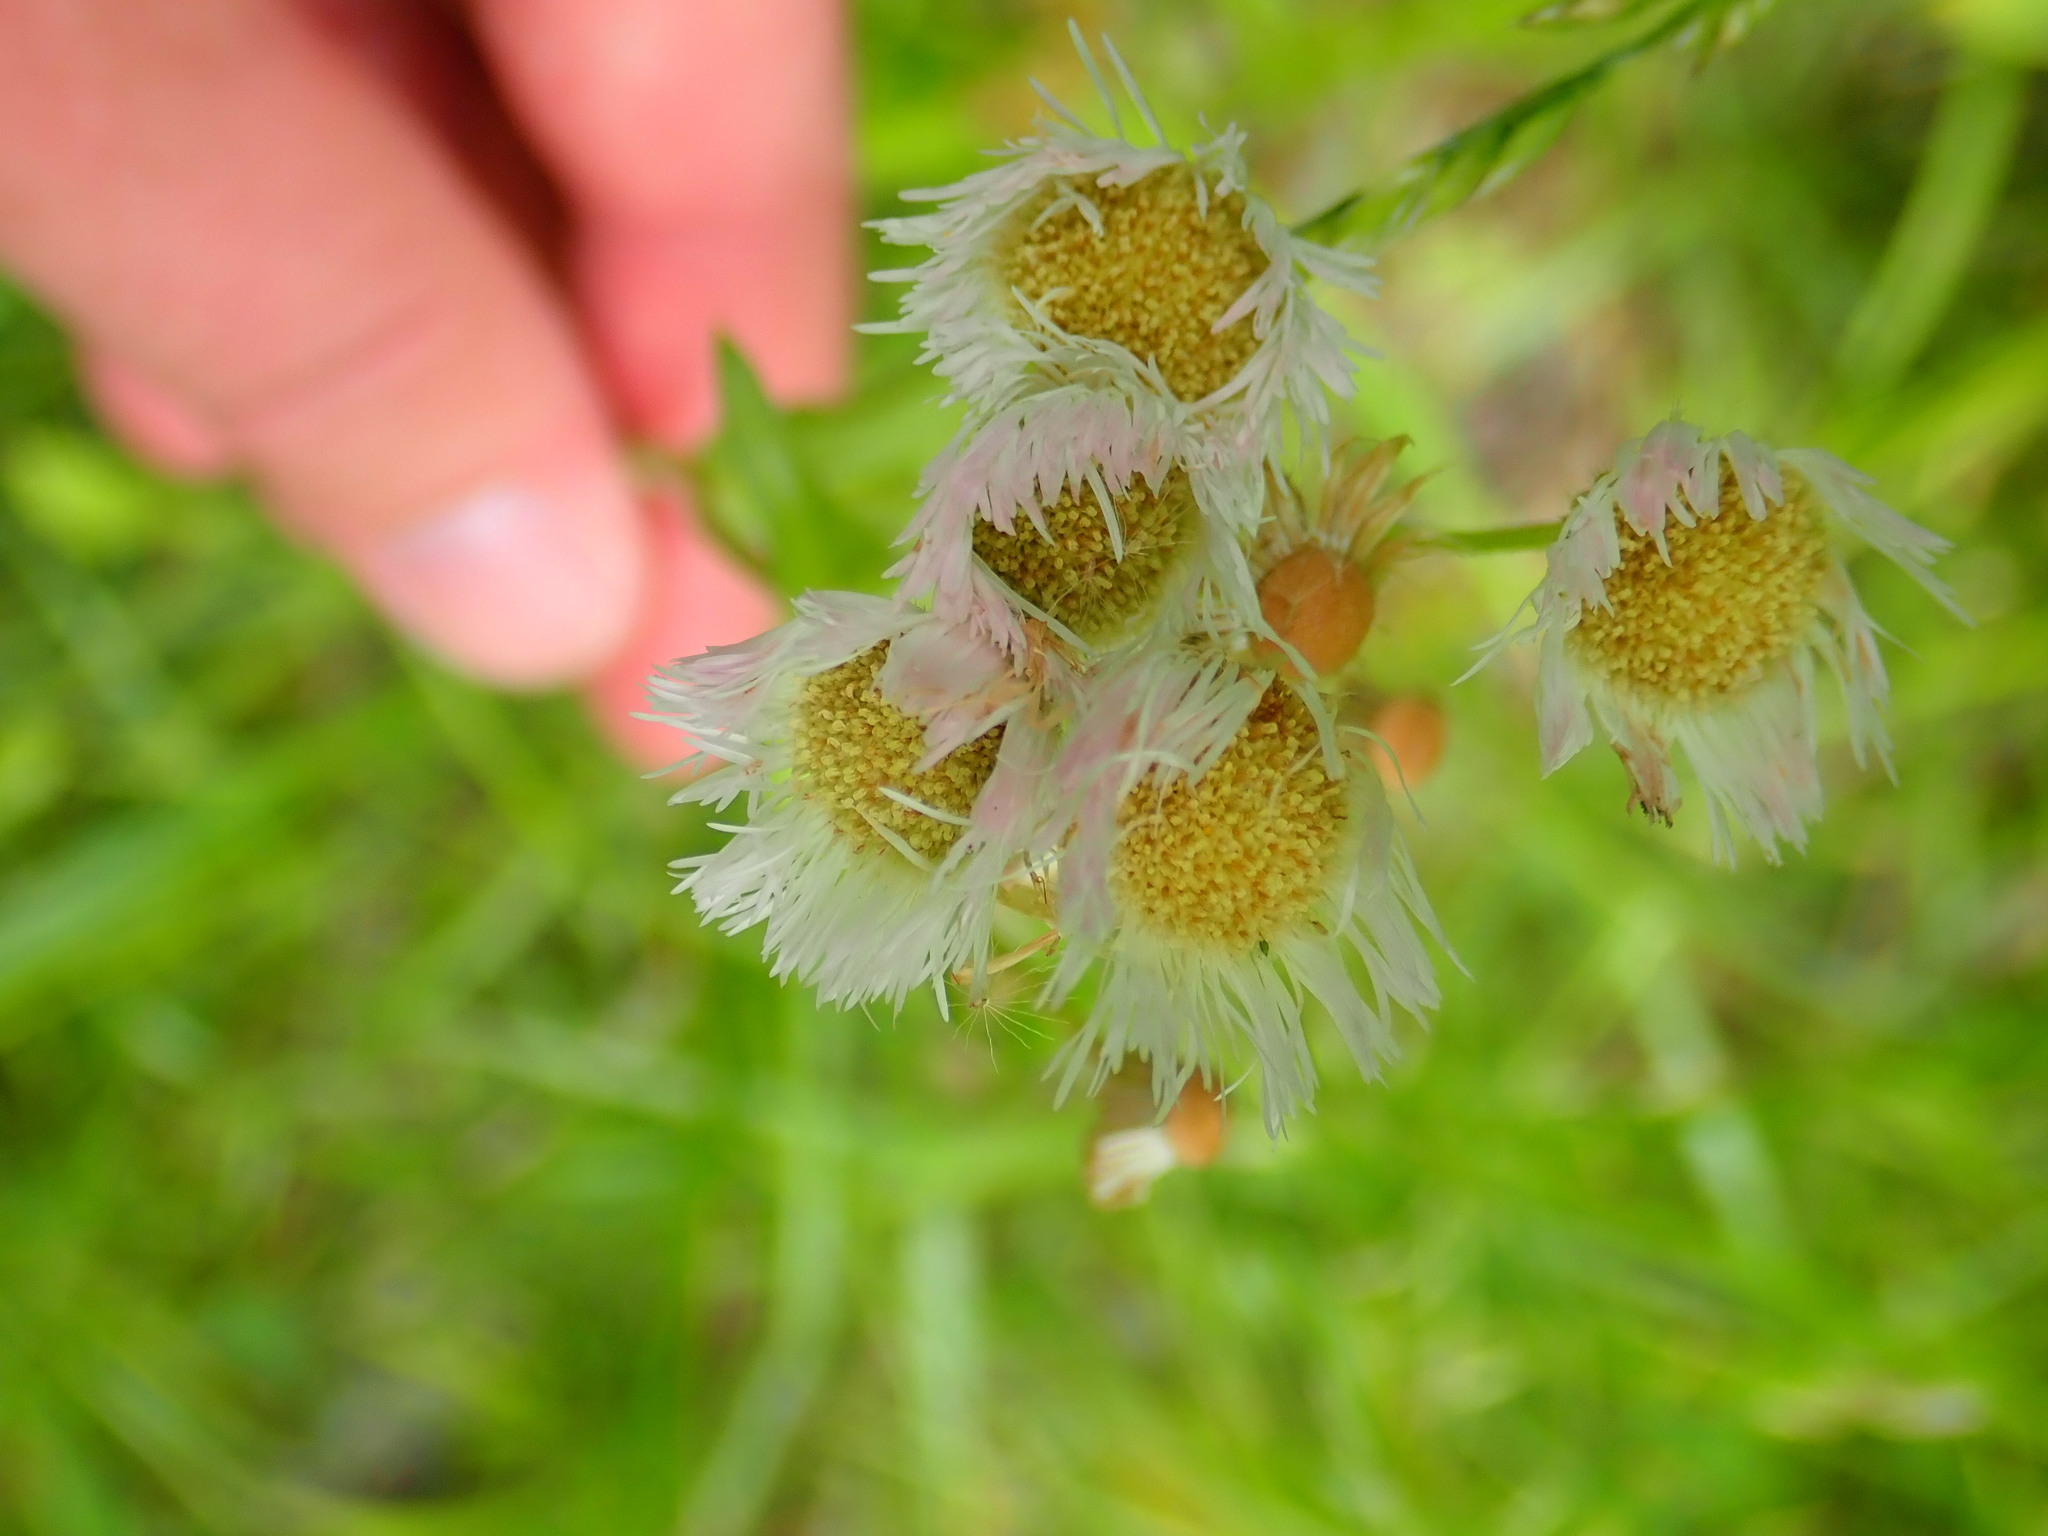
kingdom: Plantae
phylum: Tracheophyta
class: Magnoliopsida
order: Asterales
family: Asteraceae
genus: Erigeron
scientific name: Erigeron philadelphicus
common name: Robin's-plantain
